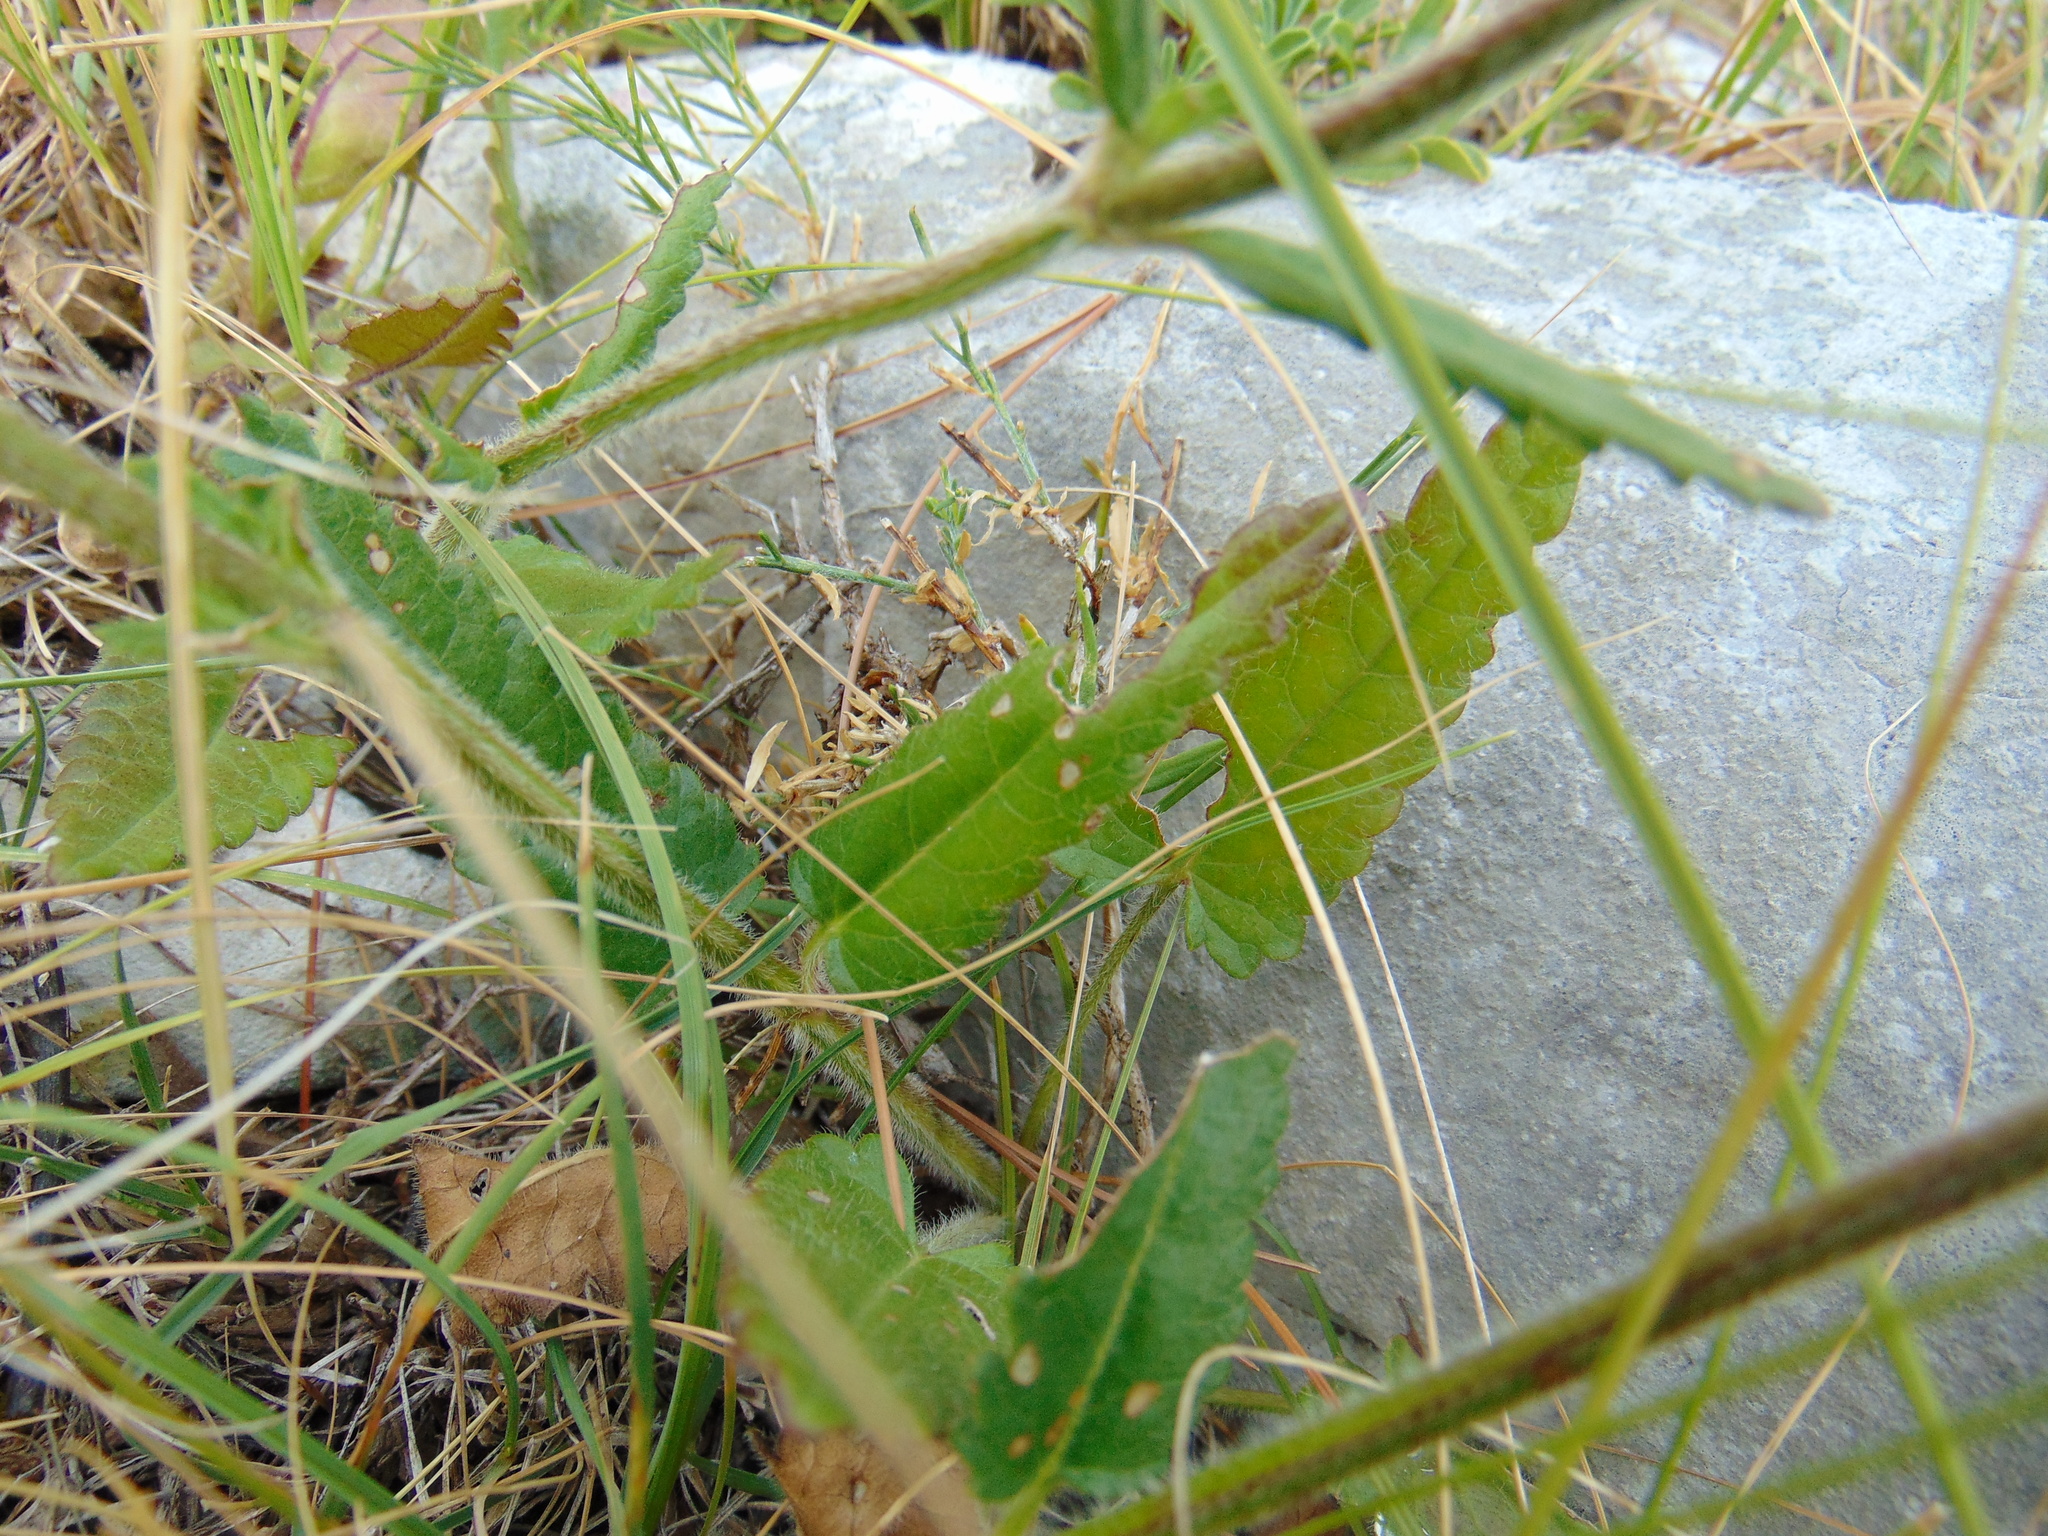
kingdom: Plantae
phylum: Tracheophyta
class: Magnoliopsida
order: Lamiales
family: Lamiaceae
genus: Betonica
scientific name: Betonica officinalis
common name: Bishop's-wort
